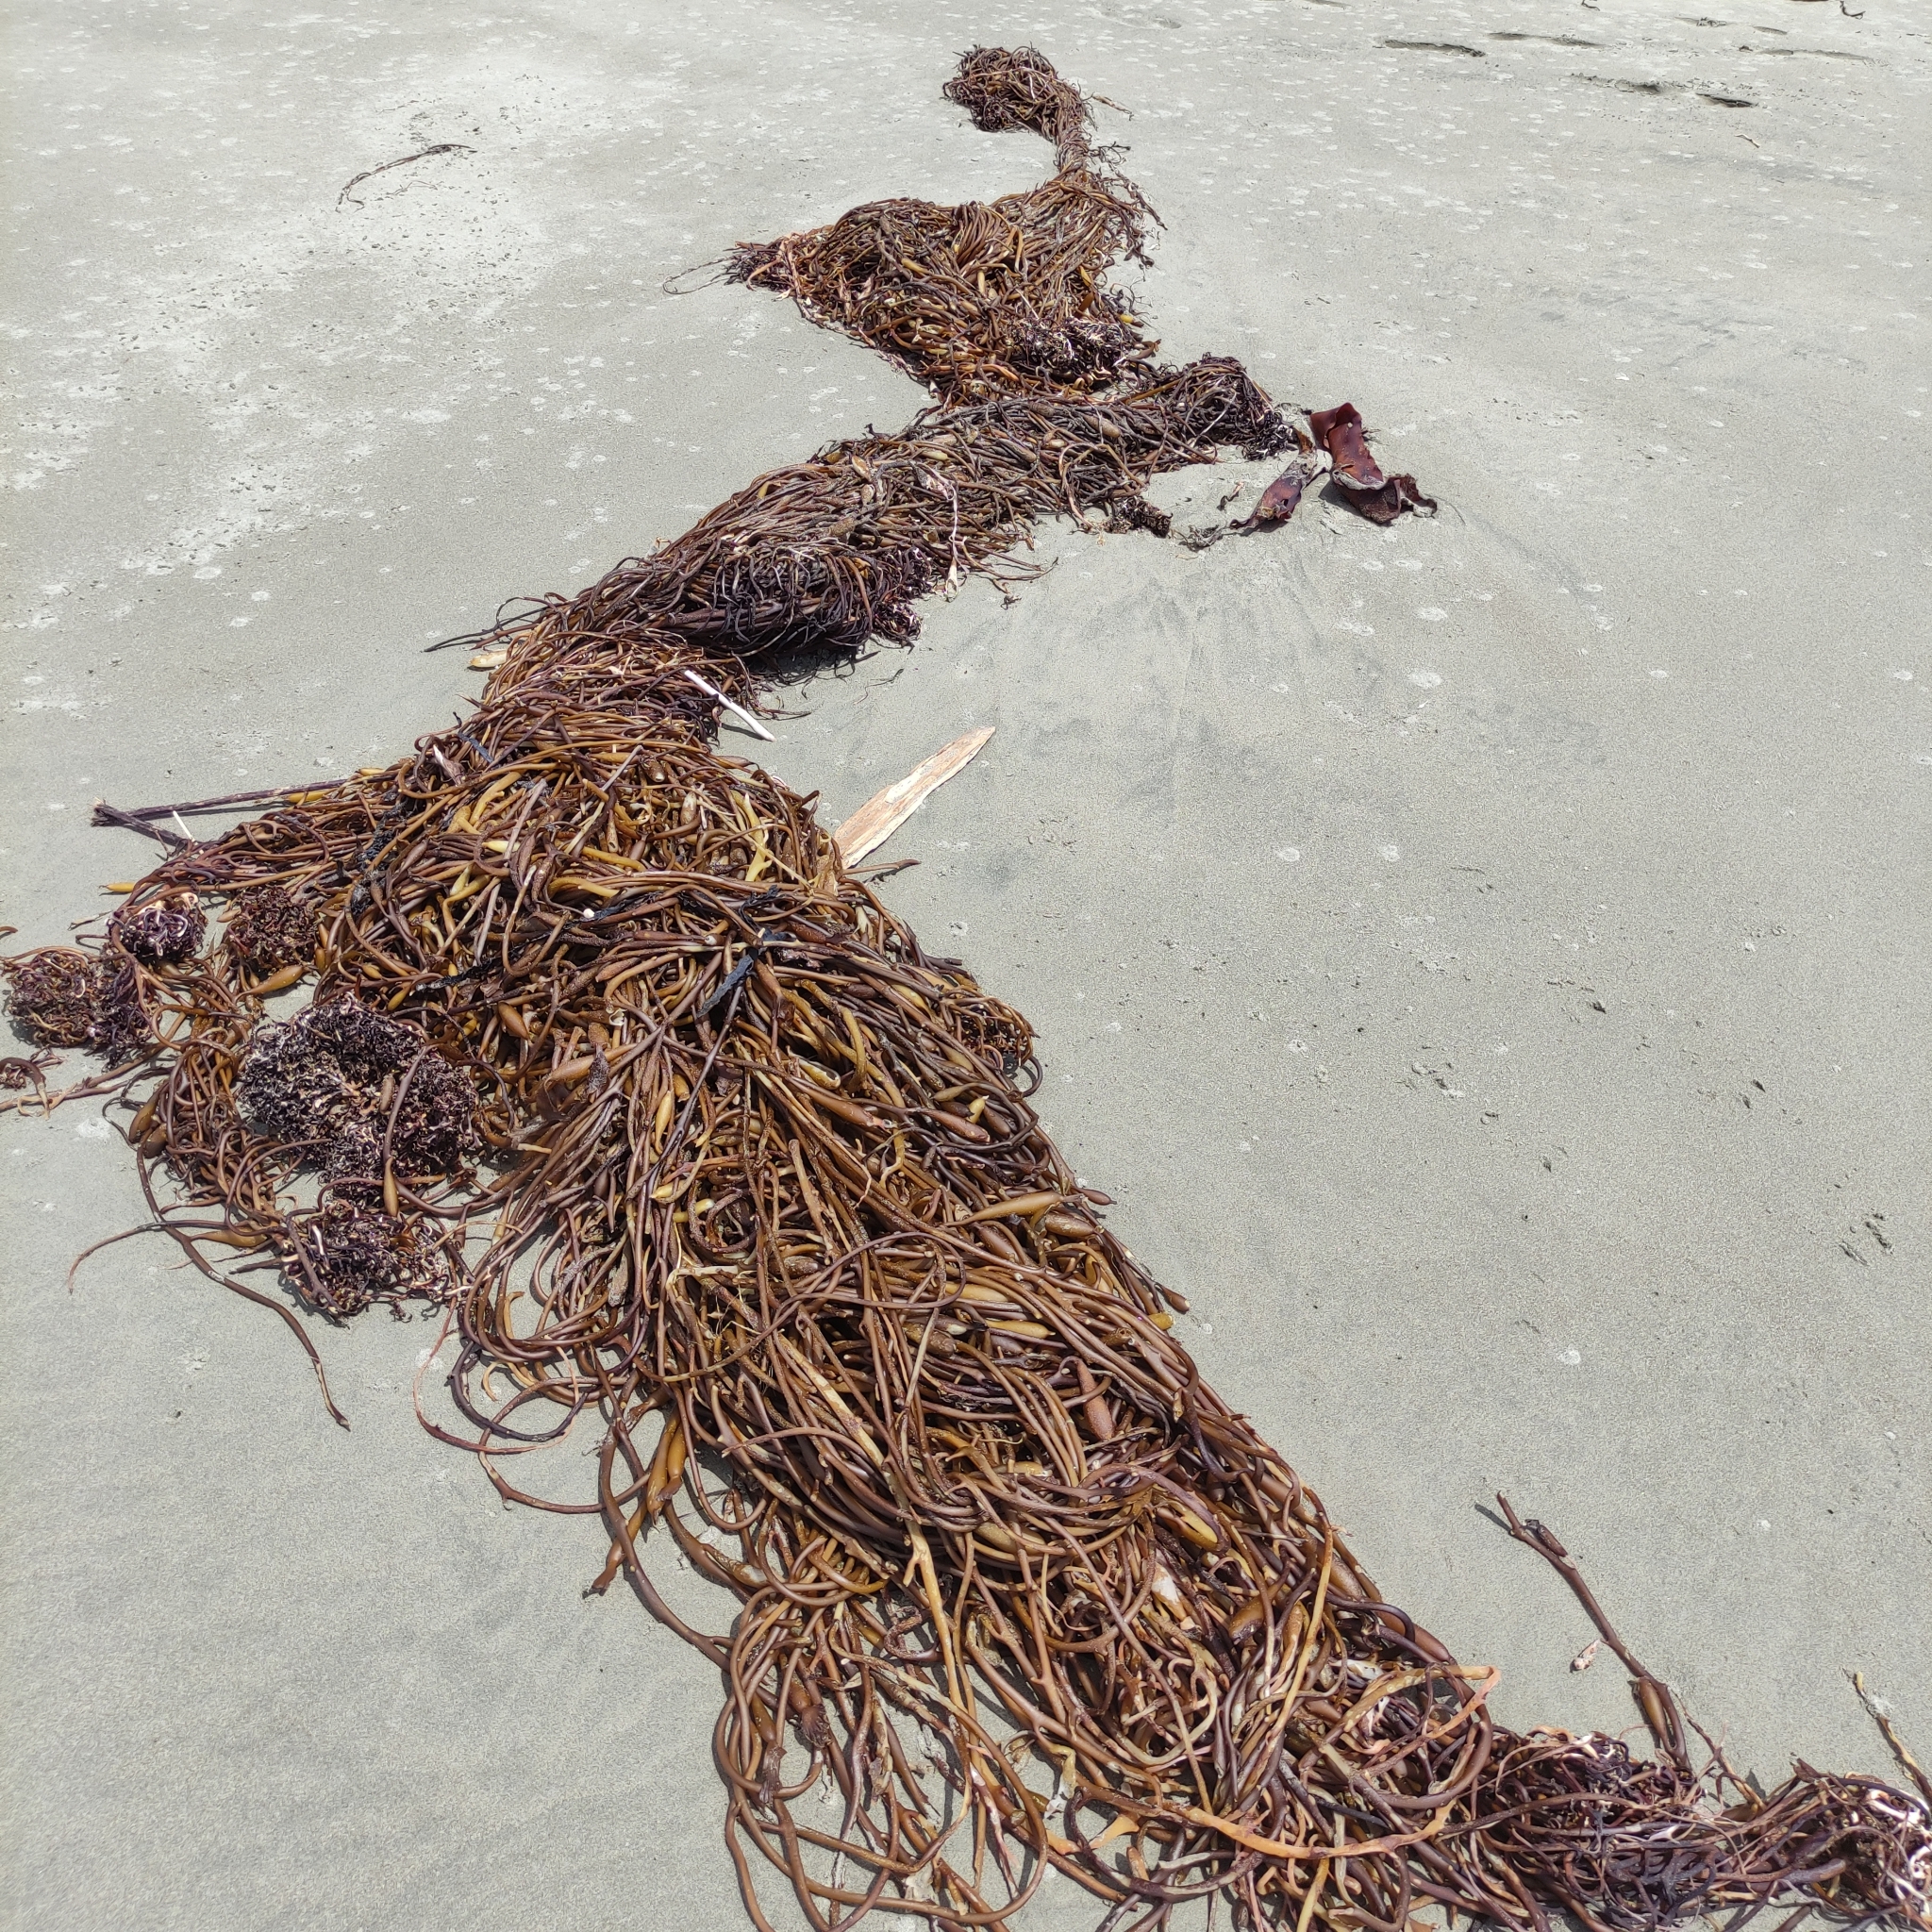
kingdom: Chromista
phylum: Ochrophyta
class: Phaeophyceae
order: Laminariales
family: Laminariaceae
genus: Macrocystis
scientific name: Macrocystis pyrifera
